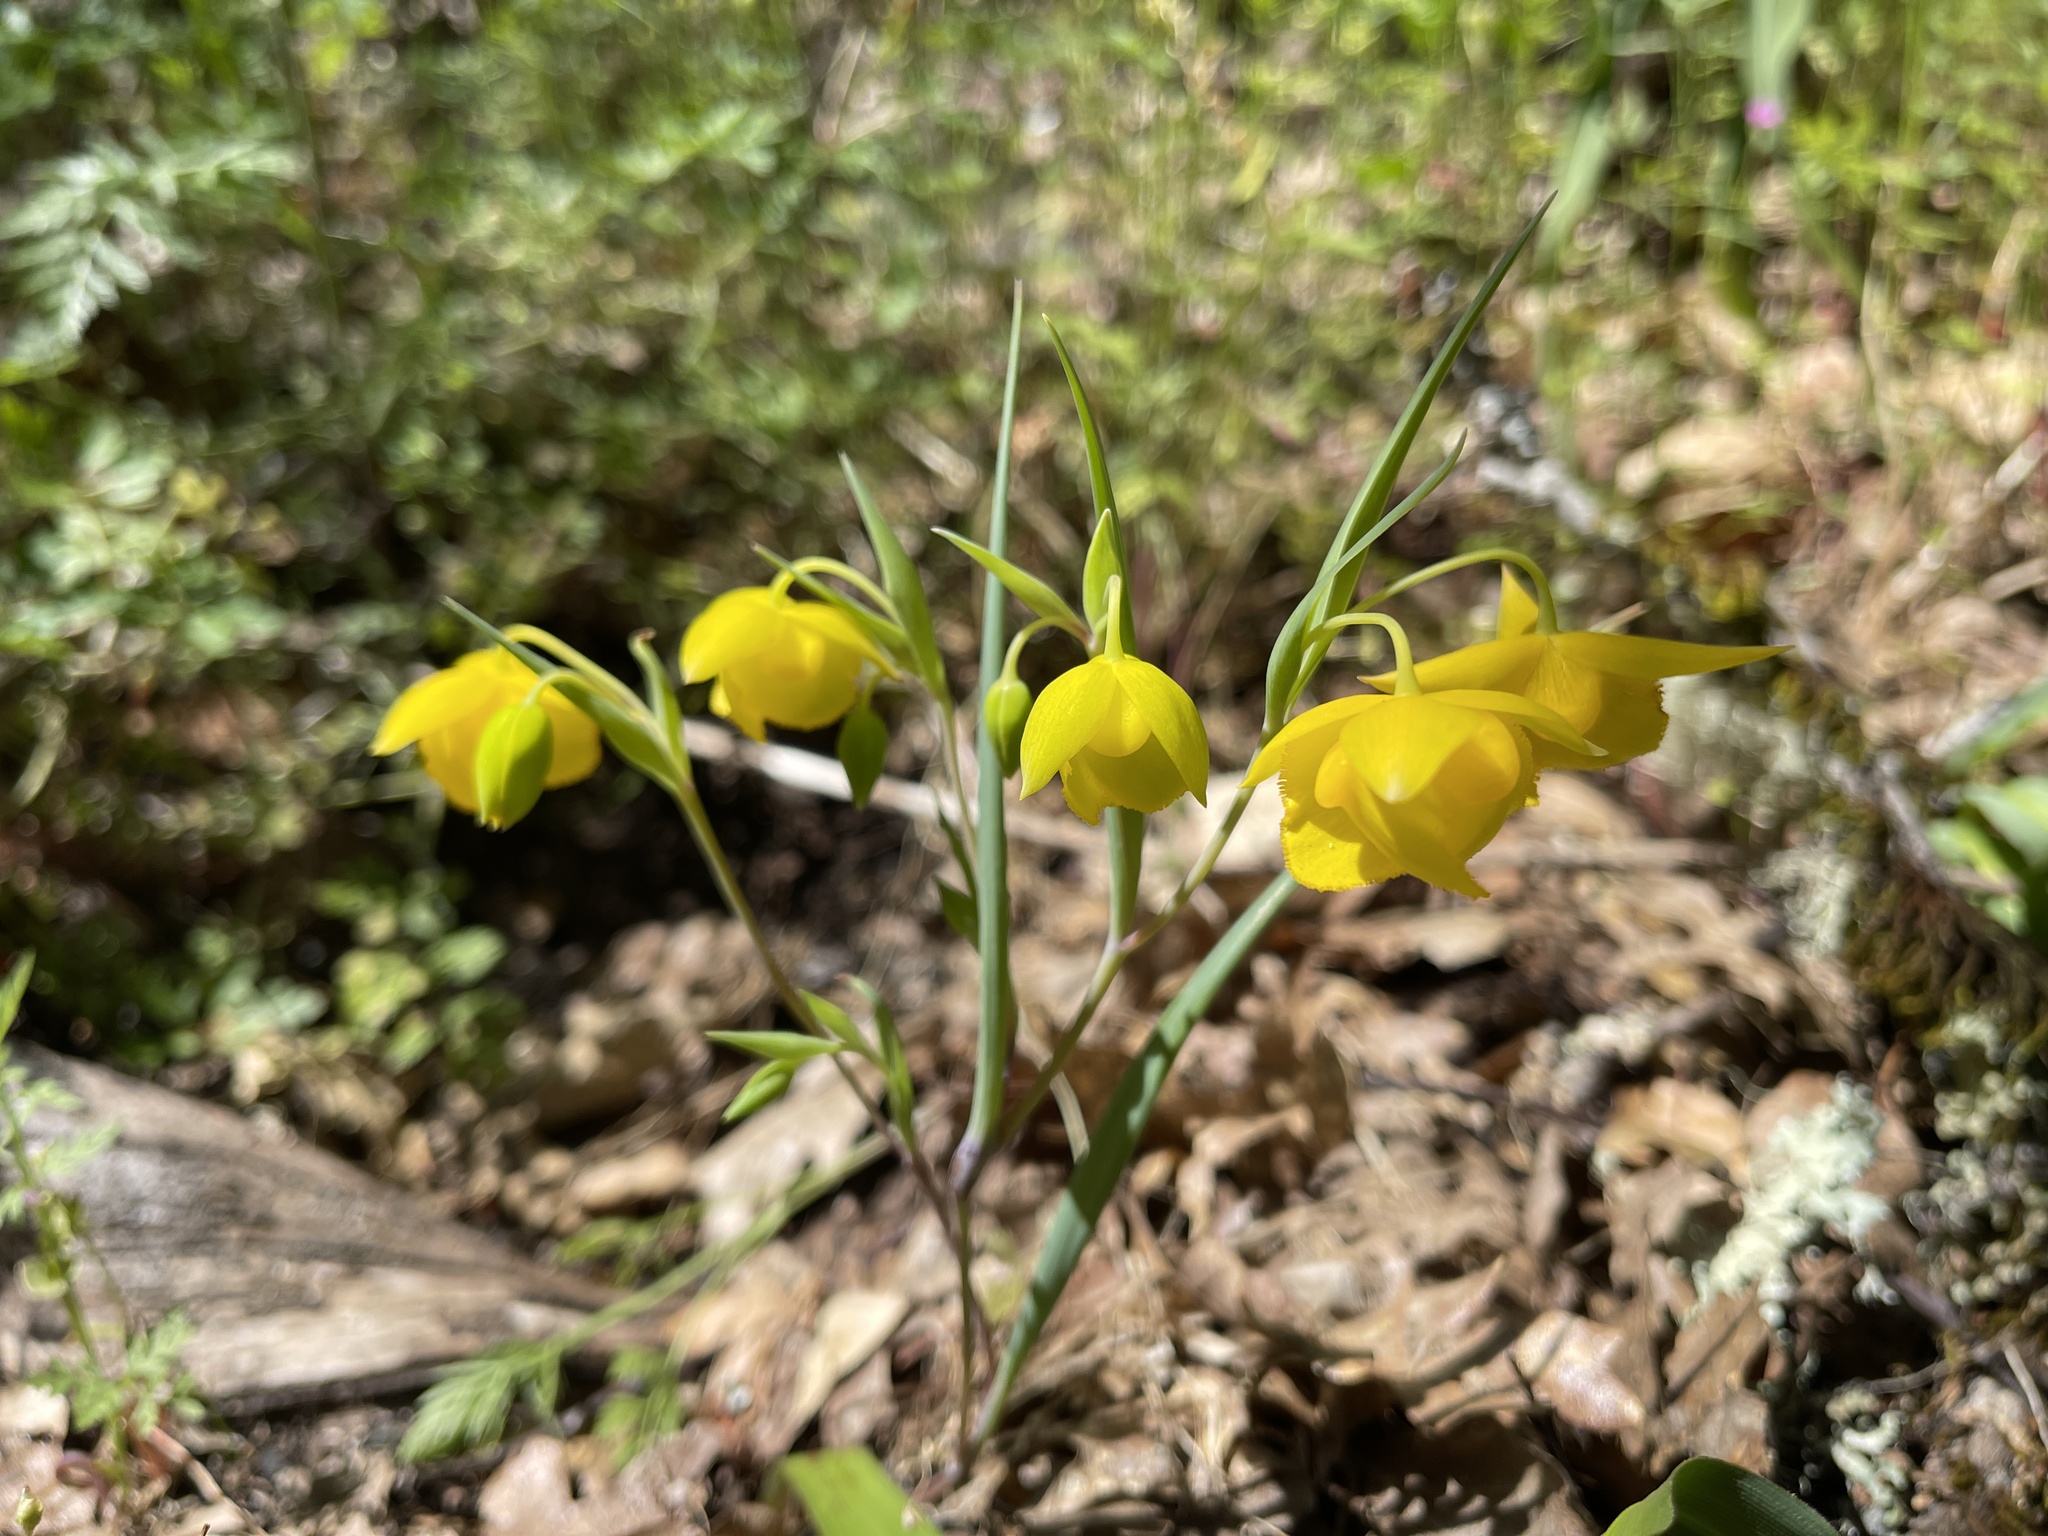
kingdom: Plantae
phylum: Tracheophyta
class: Liliopsida
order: Liliales
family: Liliaceae
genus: Calochortus
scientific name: Calochortus amabilis
